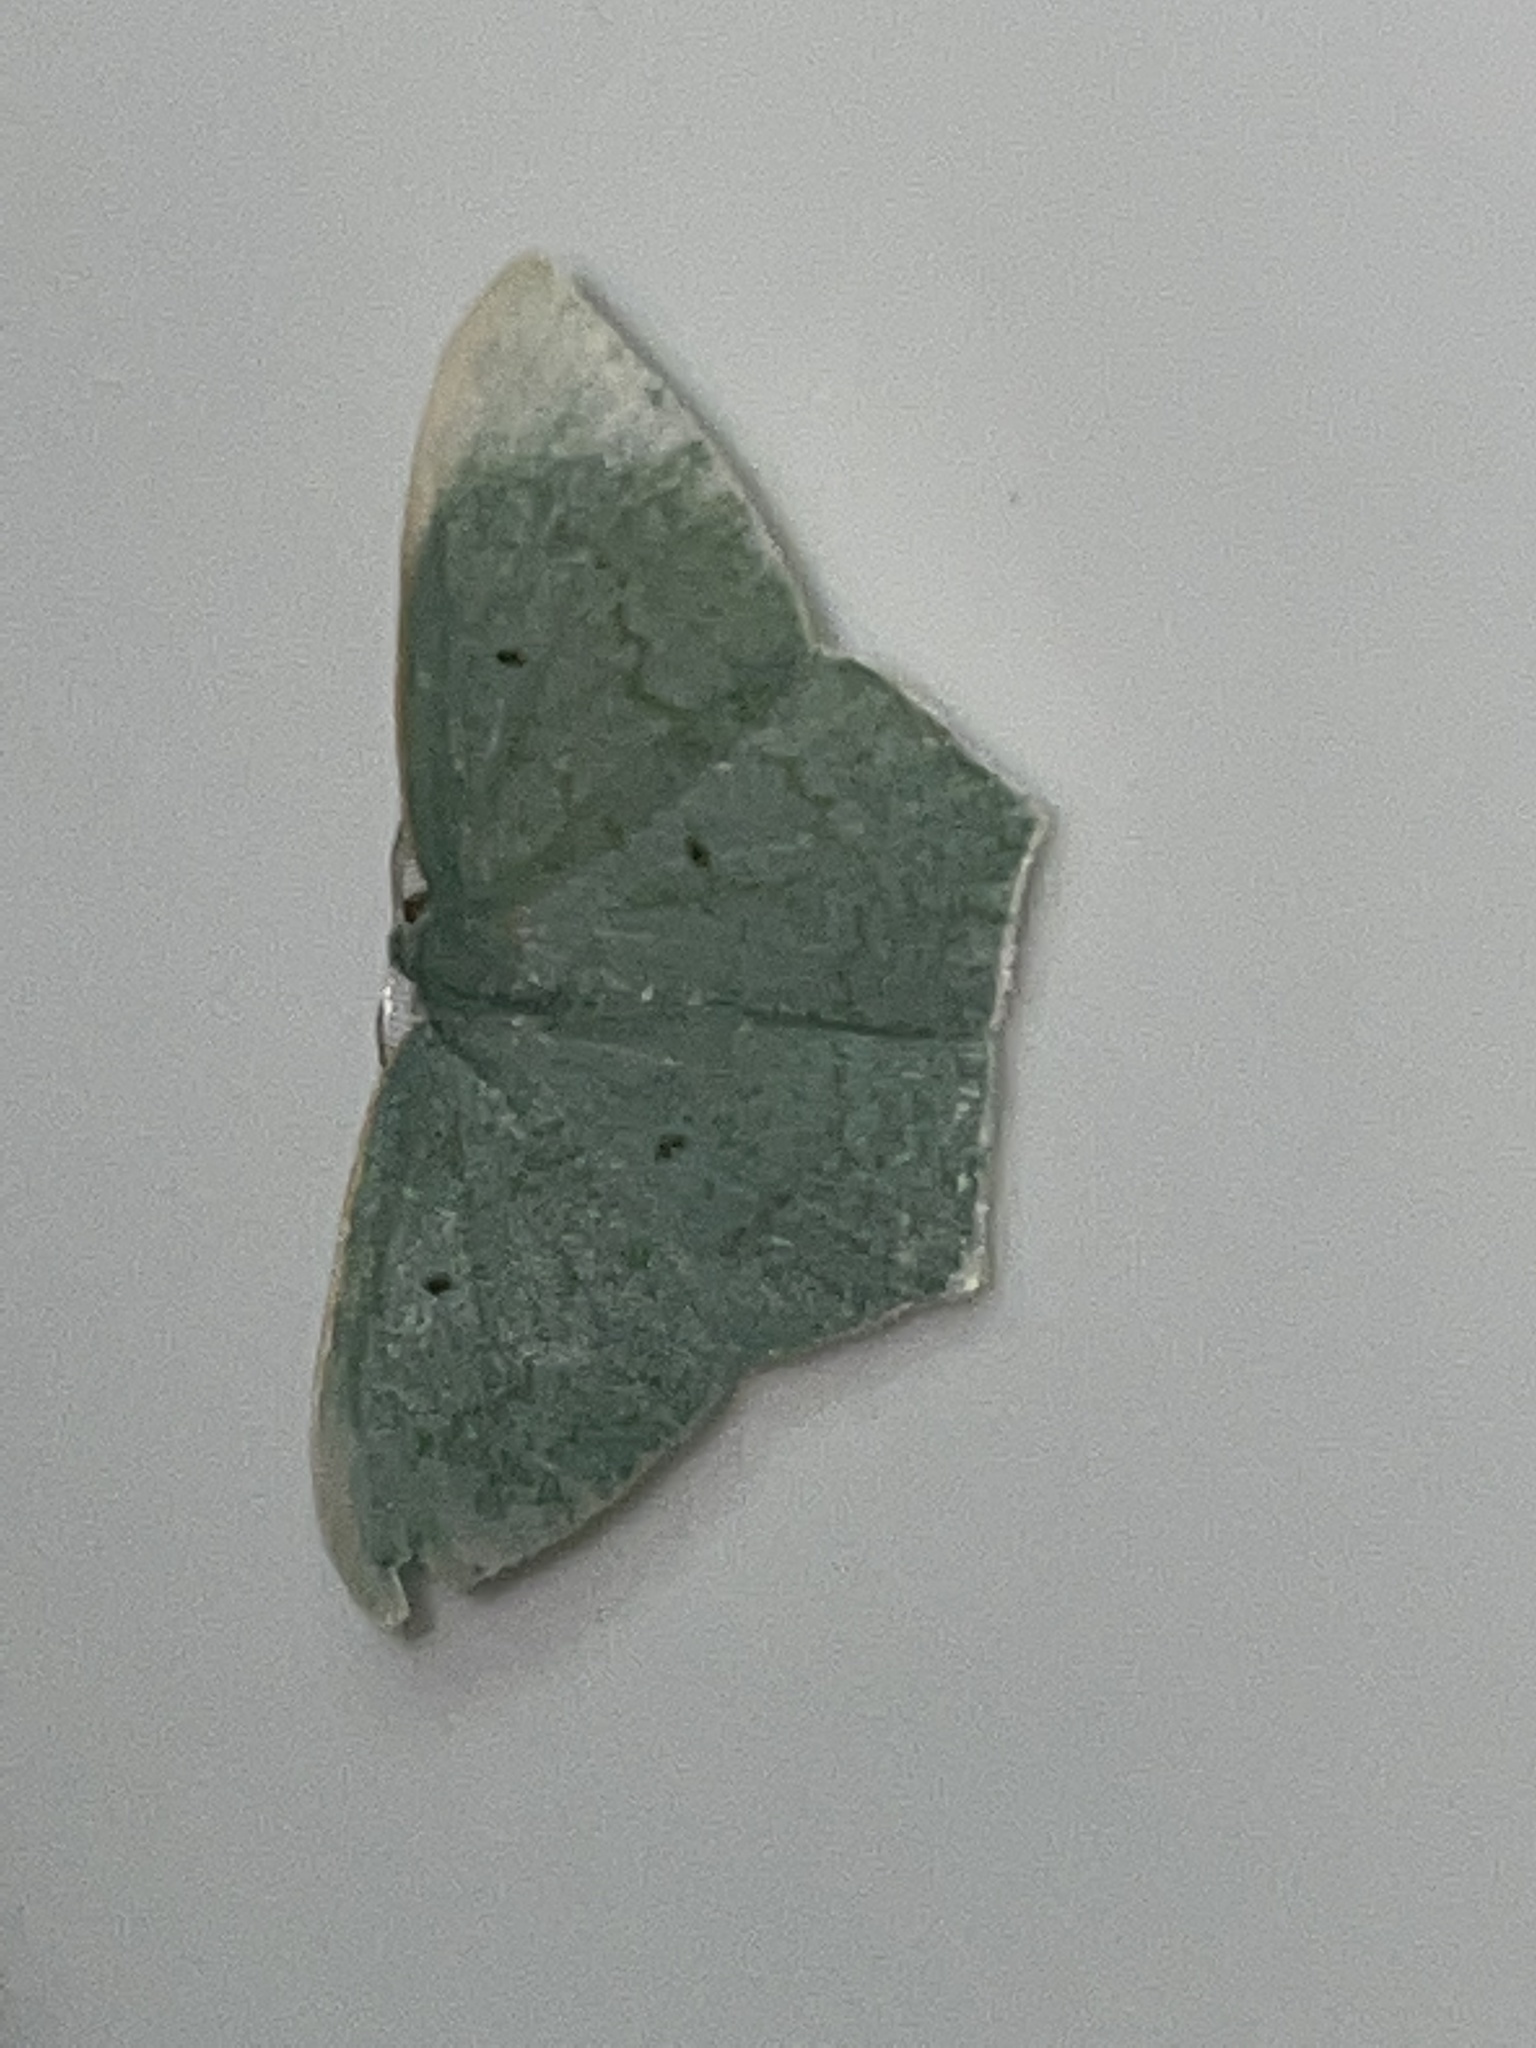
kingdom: Animalia
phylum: Arthropoda
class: Insecta
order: Lepidoptera
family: Geometridae
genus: Maxates
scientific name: Maxates centrophylla
